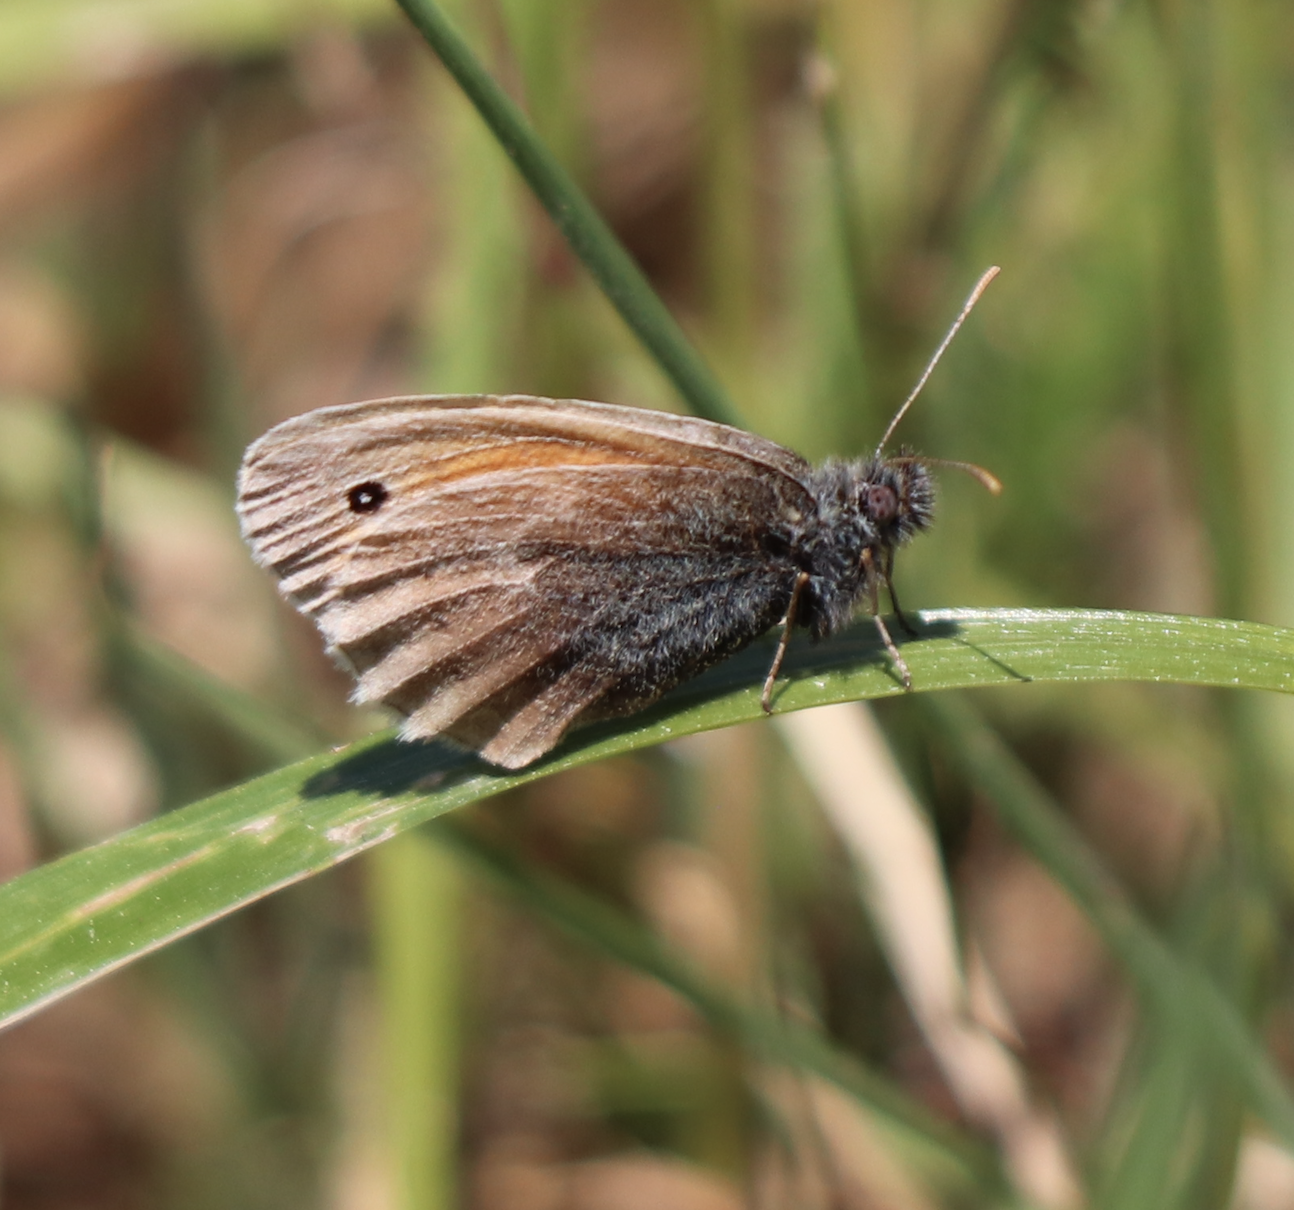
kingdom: Animalia
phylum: Arthropoda
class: Insecta
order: Lepidoptera
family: Nymphalidae
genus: Coenonympha
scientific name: Coenonympha pamphilus
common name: Small heath
